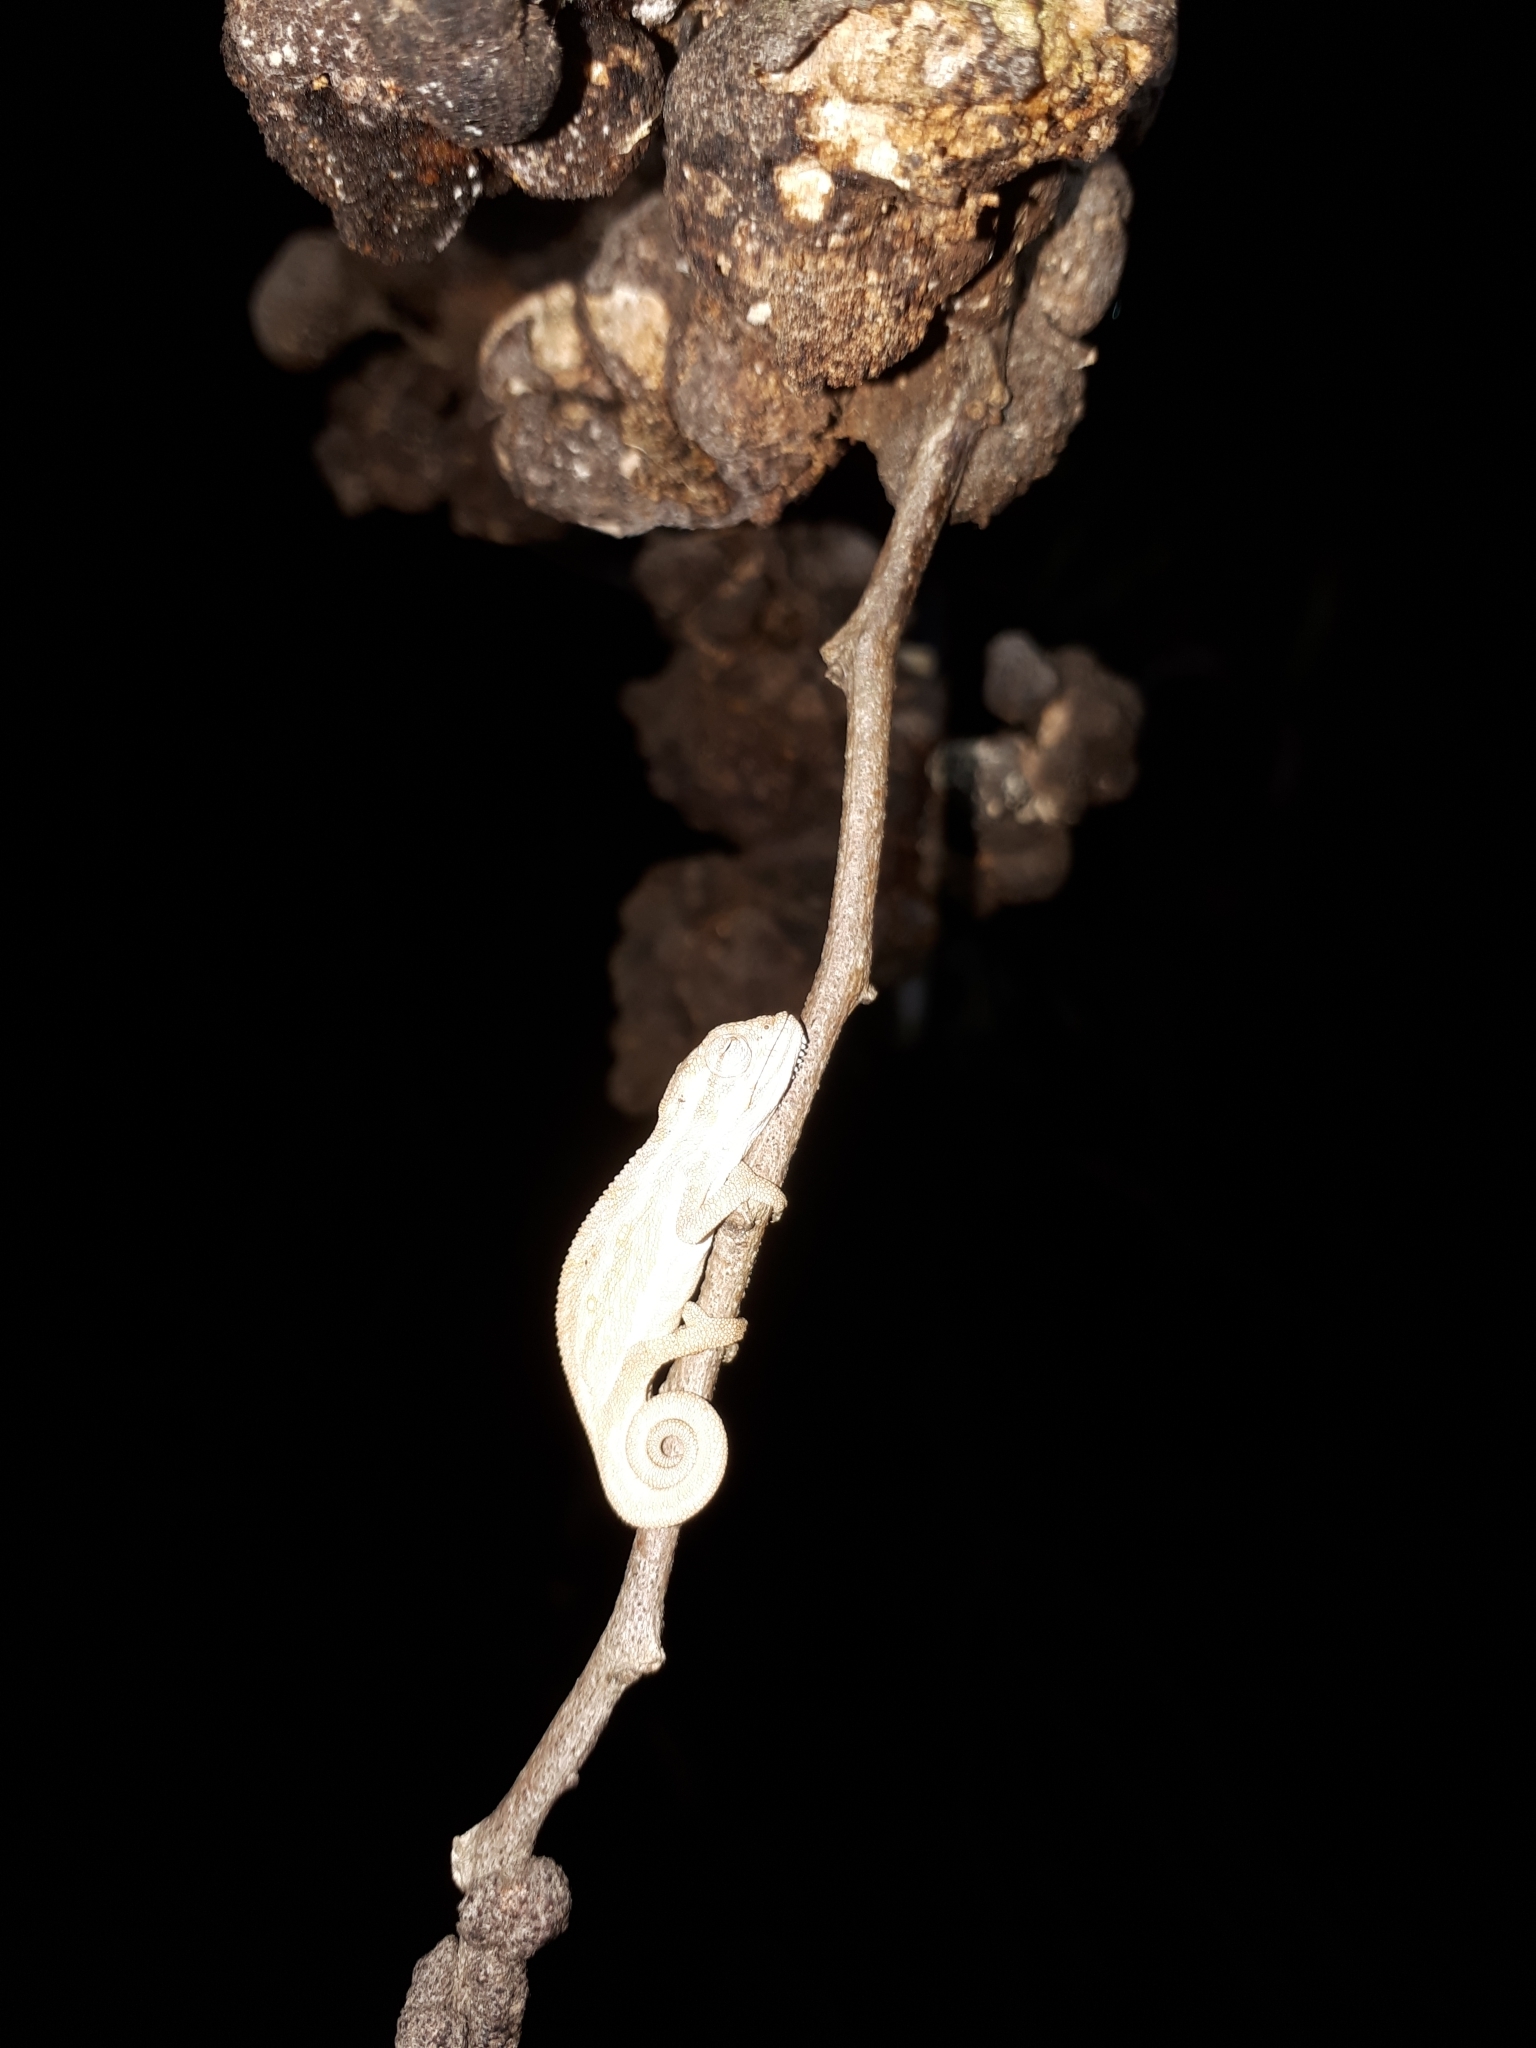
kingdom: Animalia
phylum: Chordata
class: Squamata
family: Chamaeleonidae
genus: Bradypodion
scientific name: Bradypodion pumilum
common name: Cape dwarf chameleon
